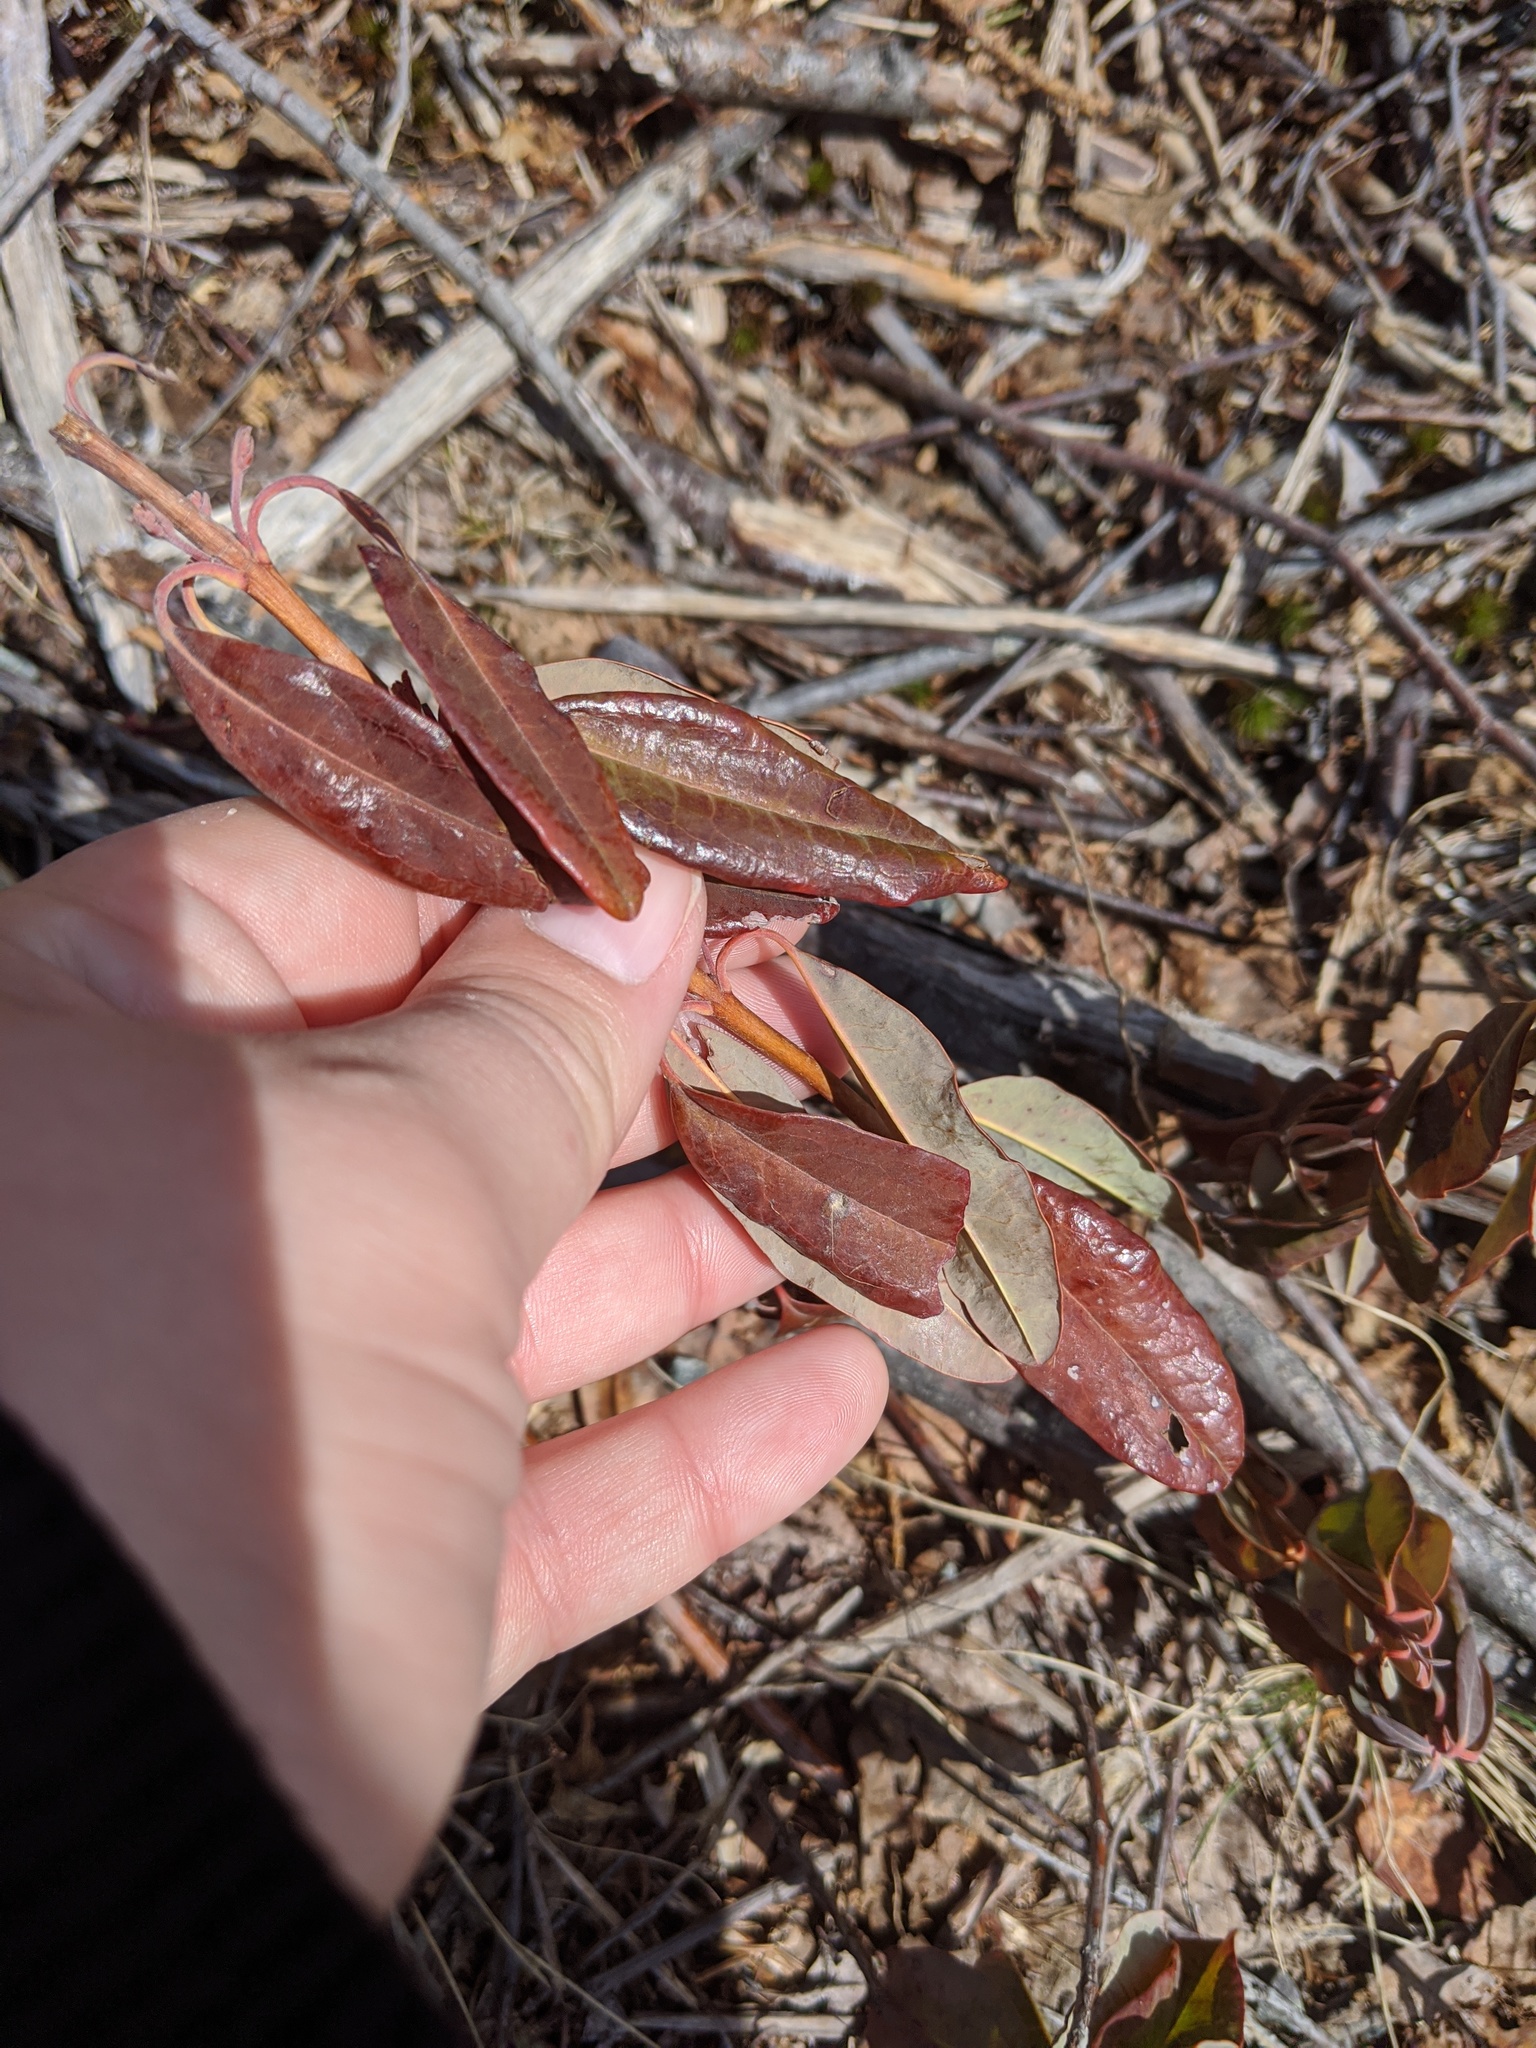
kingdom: Plantae
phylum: Tracheophyta
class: Magnoliopsida
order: Ericales
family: Ericaceae
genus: Kalmia
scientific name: Kalmia angustifolia
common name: Sheep-laurel
